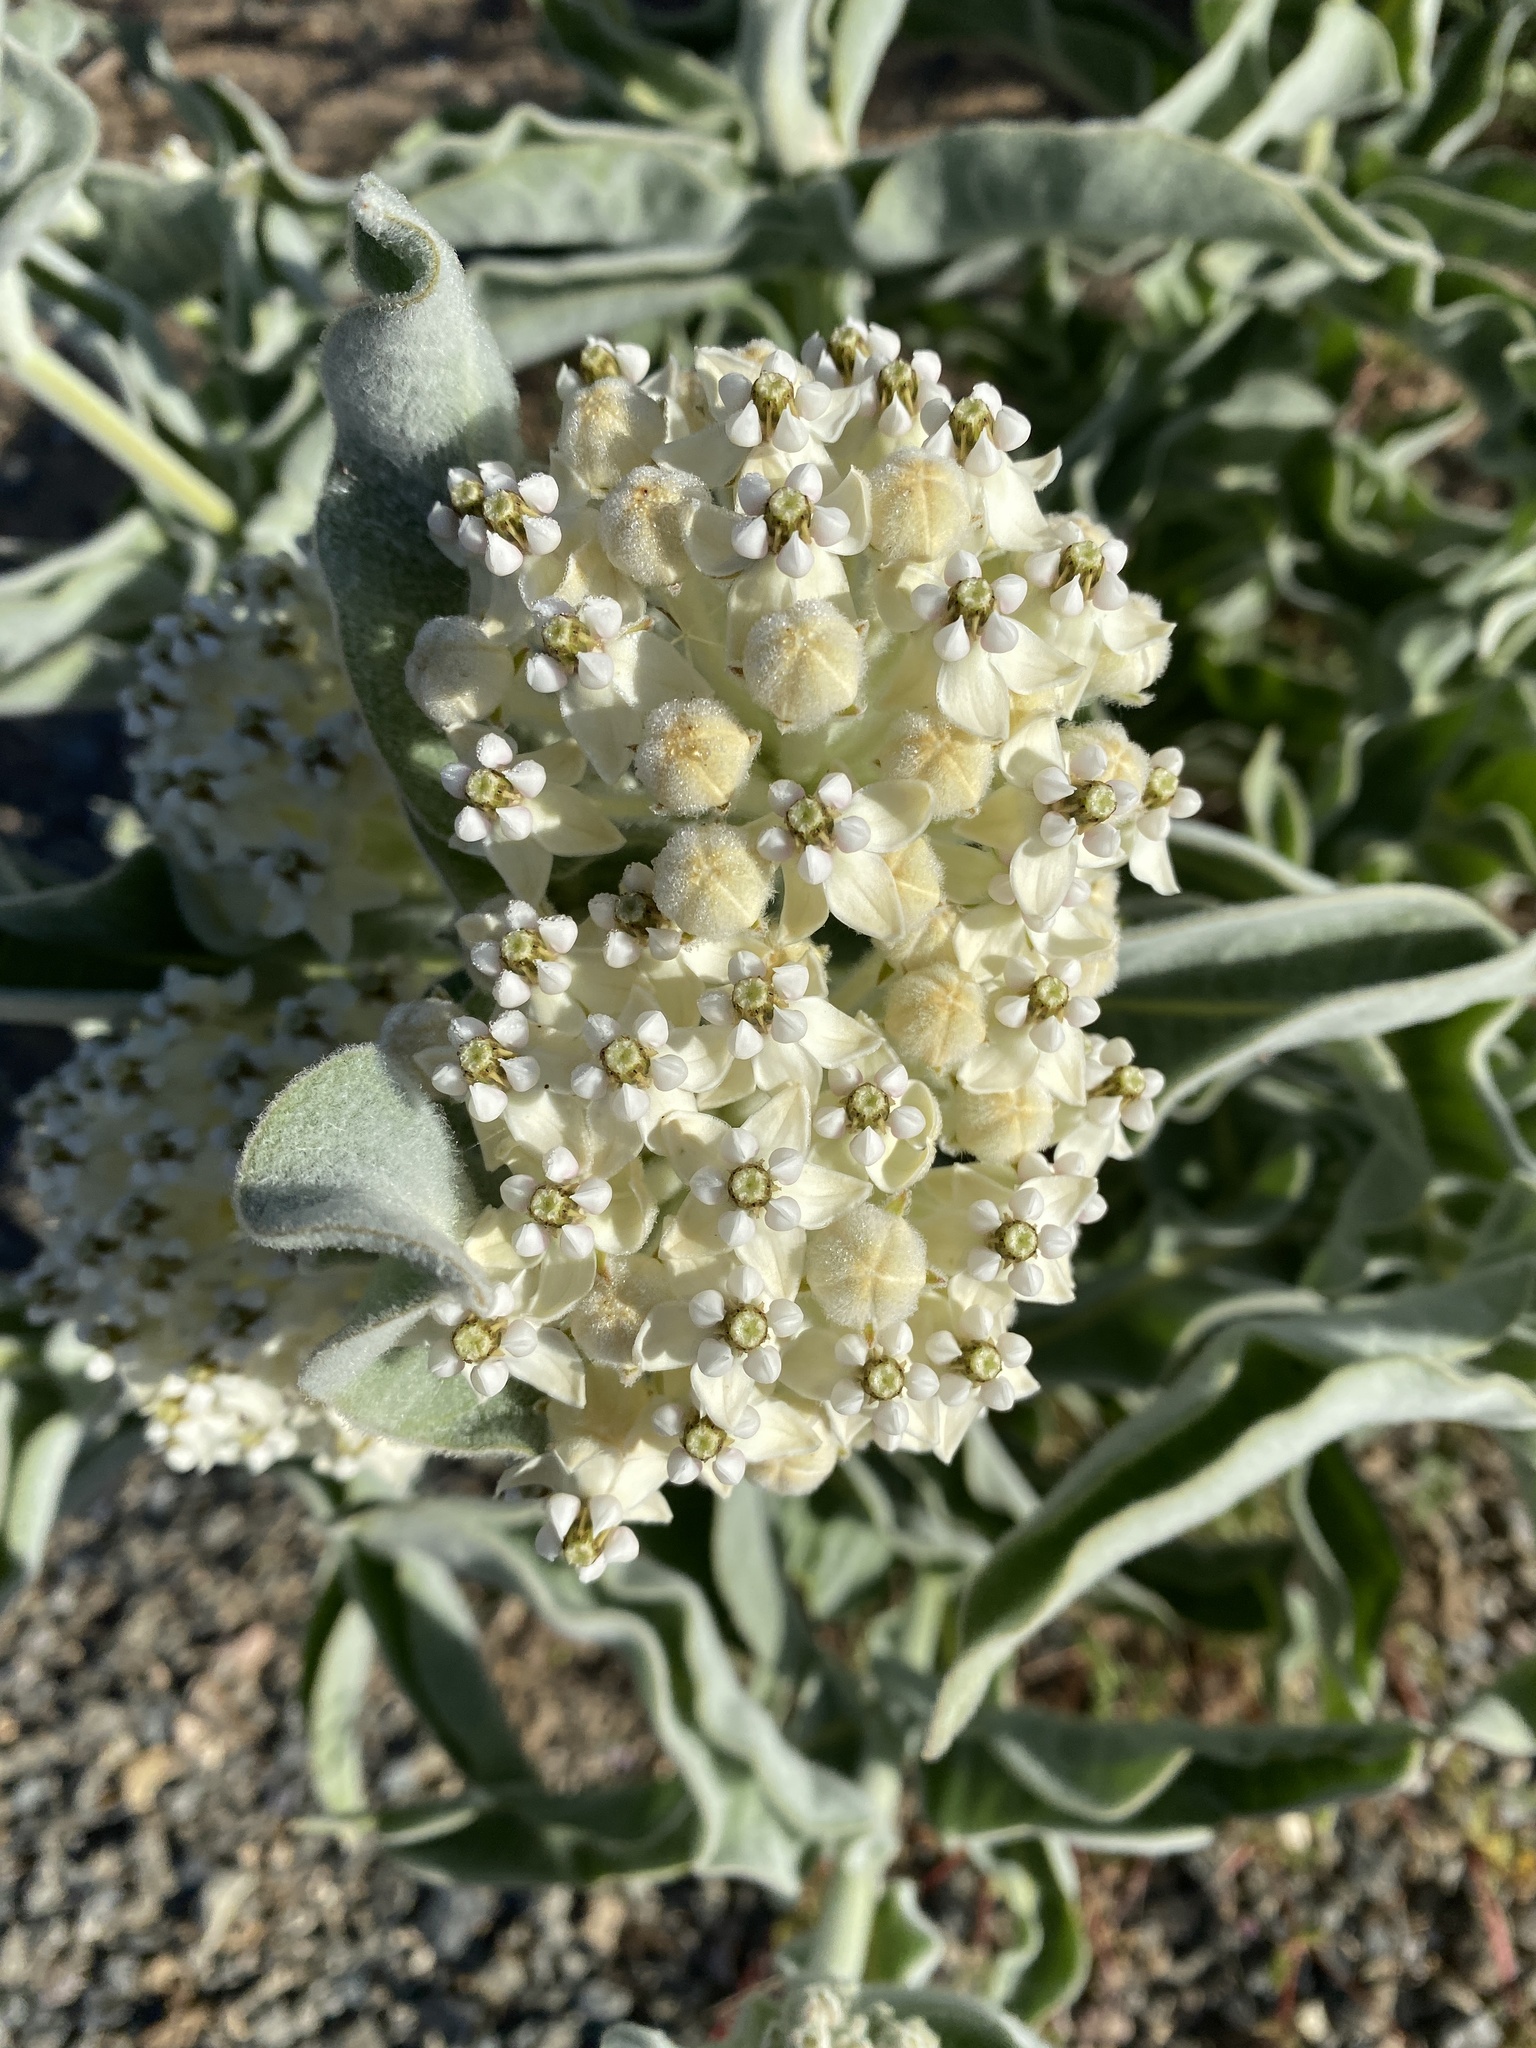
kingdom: Plantae
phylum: Tracheophyta
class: Magnoliopsida
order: Gentianales
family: Apocynaceae
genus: Asclepias
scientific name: Asclepias eriocarpa
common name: Indian milkweed
